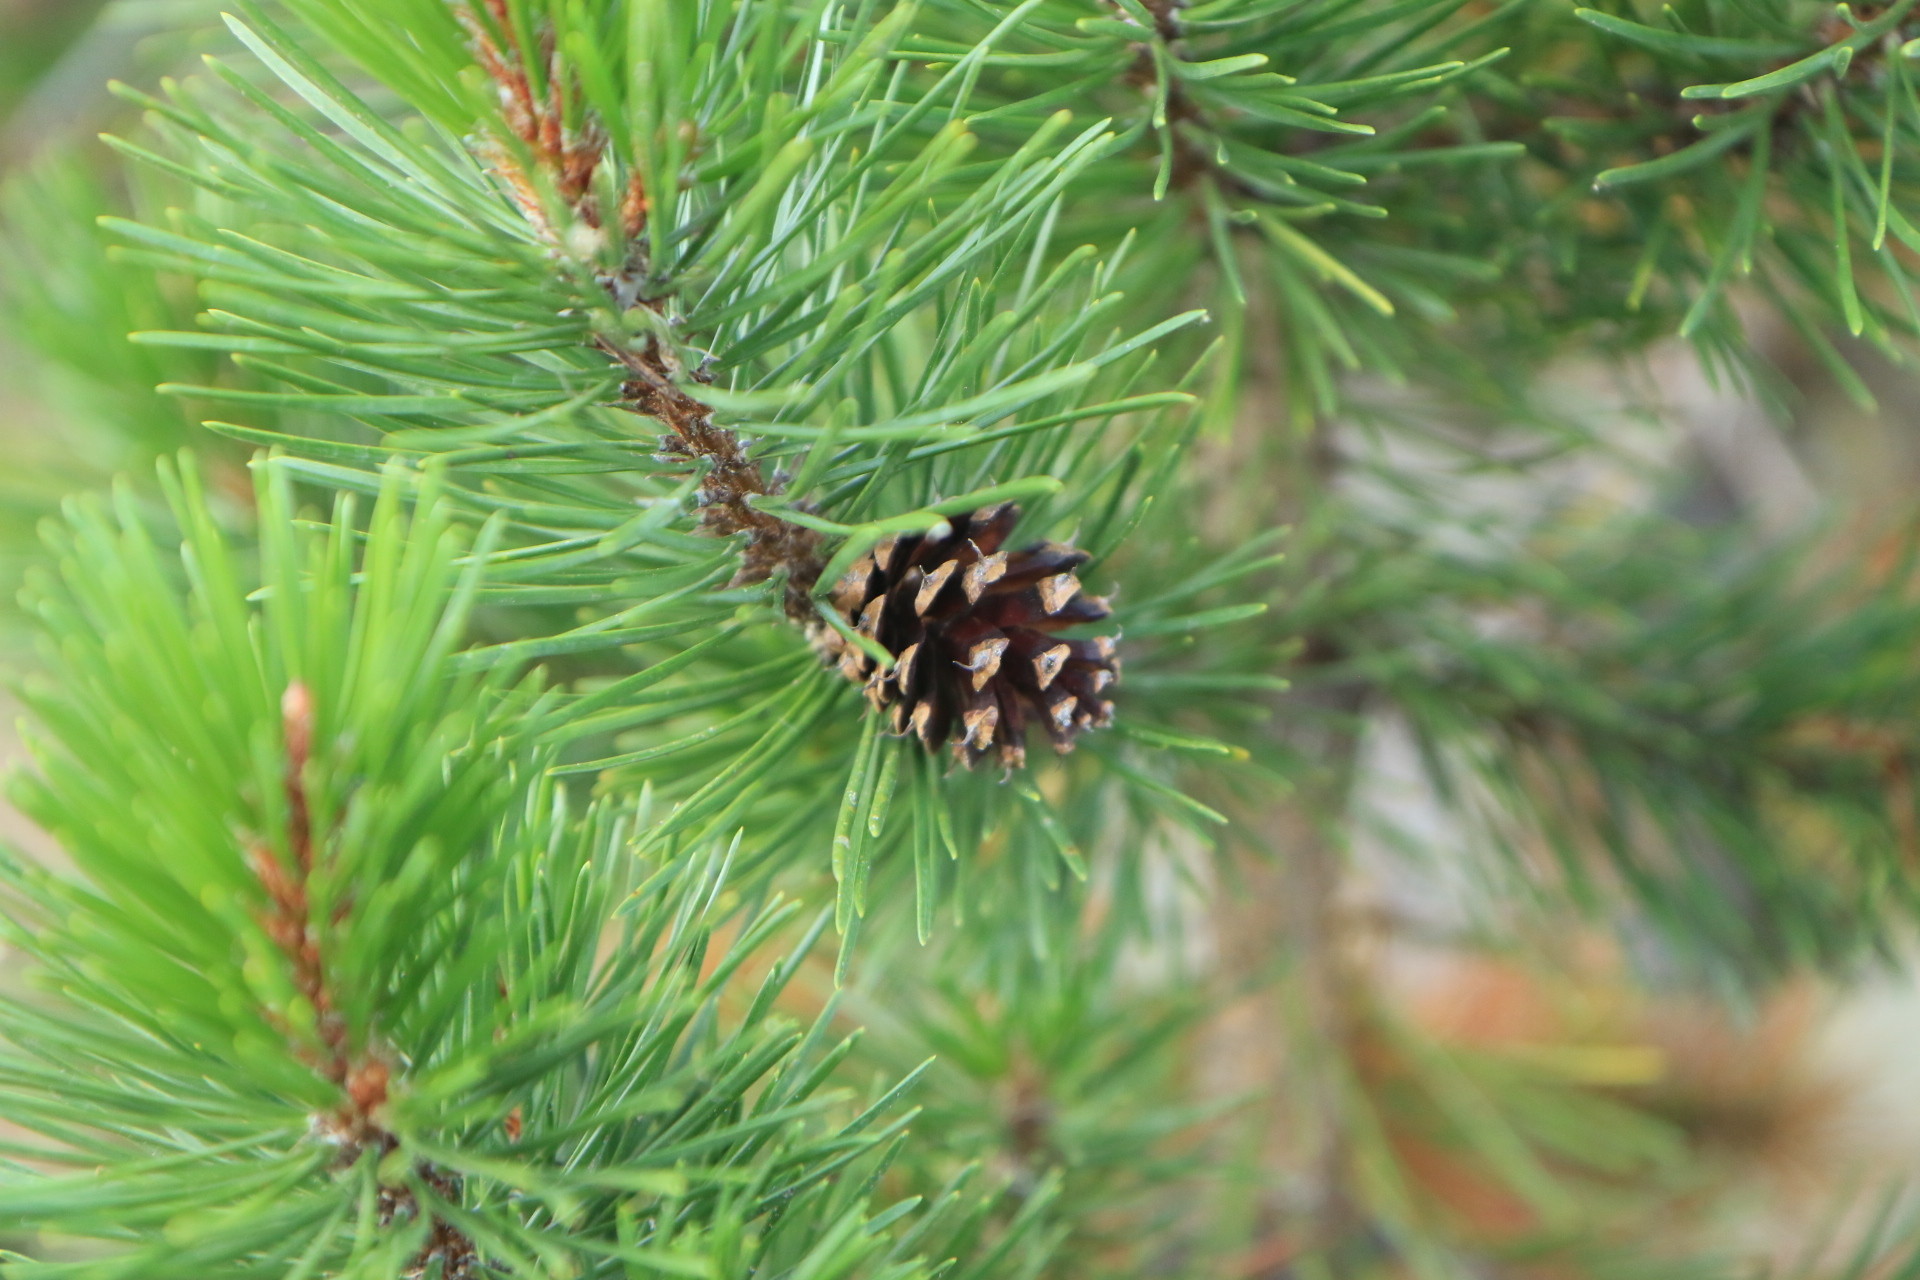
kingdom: Plantae
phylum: Tracheophyta
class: Pinopsida
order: Pinales
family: Pinaceae
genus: Pinus
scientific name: Pinus contorta
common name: Lodgepole pine
